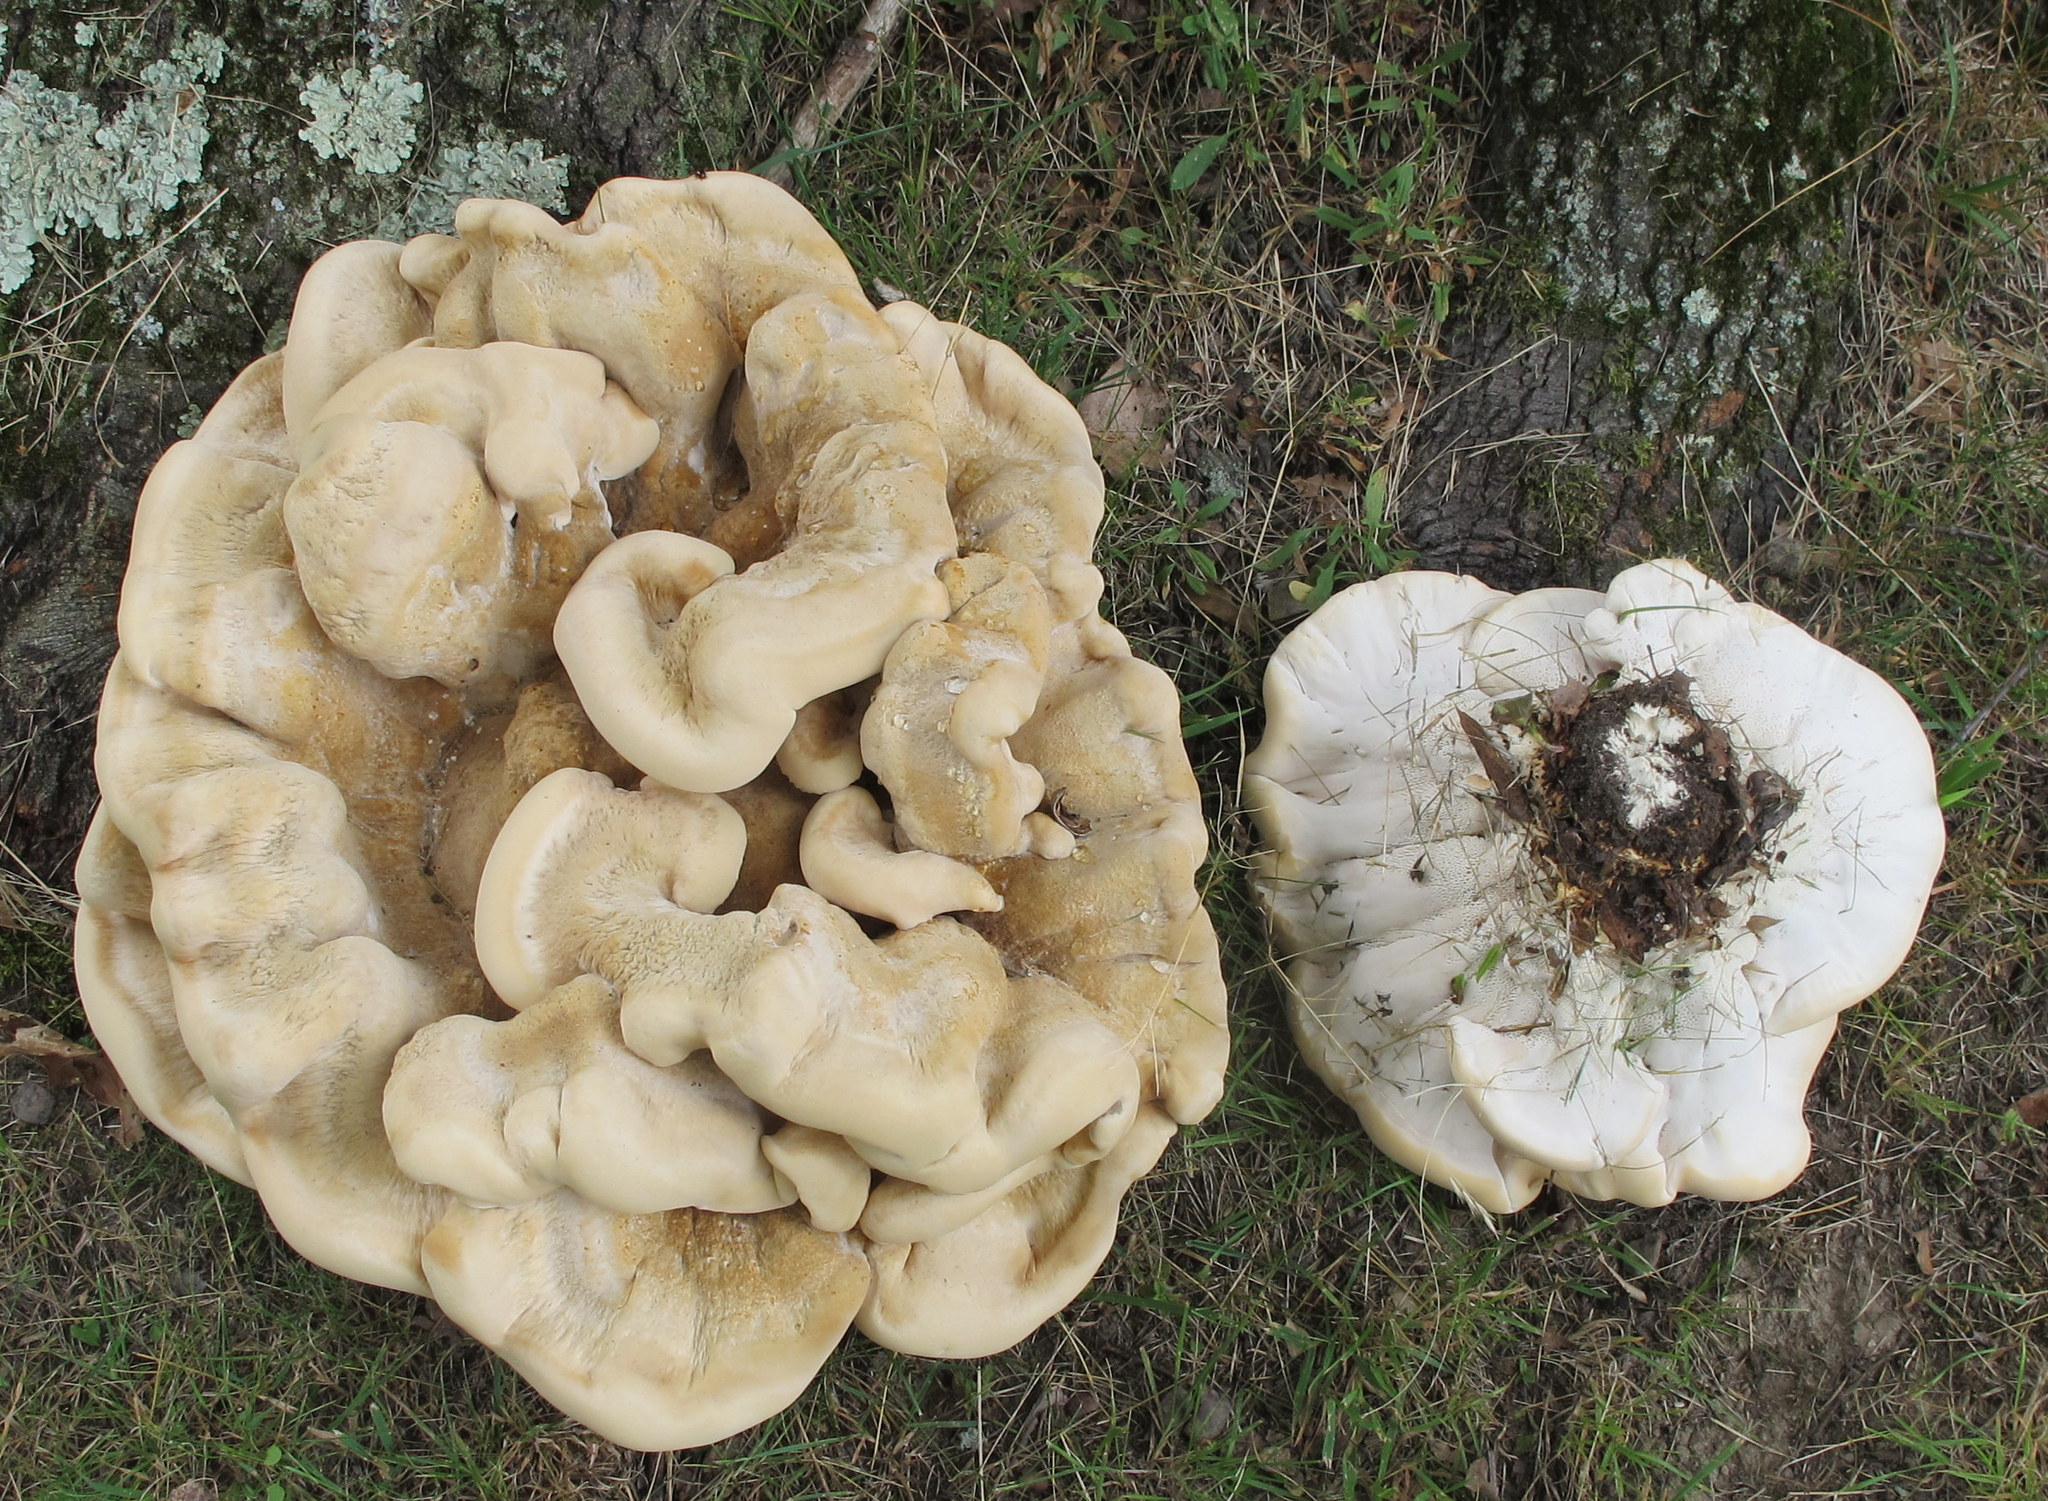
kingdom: Fungi
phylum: Basidiomycota
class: Agaricomycetes
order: Russulales
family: Bondarzewiaceae
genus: Bondarzewia
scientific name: Bondarzewia berkeleyi
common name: Berkeley's polypore
